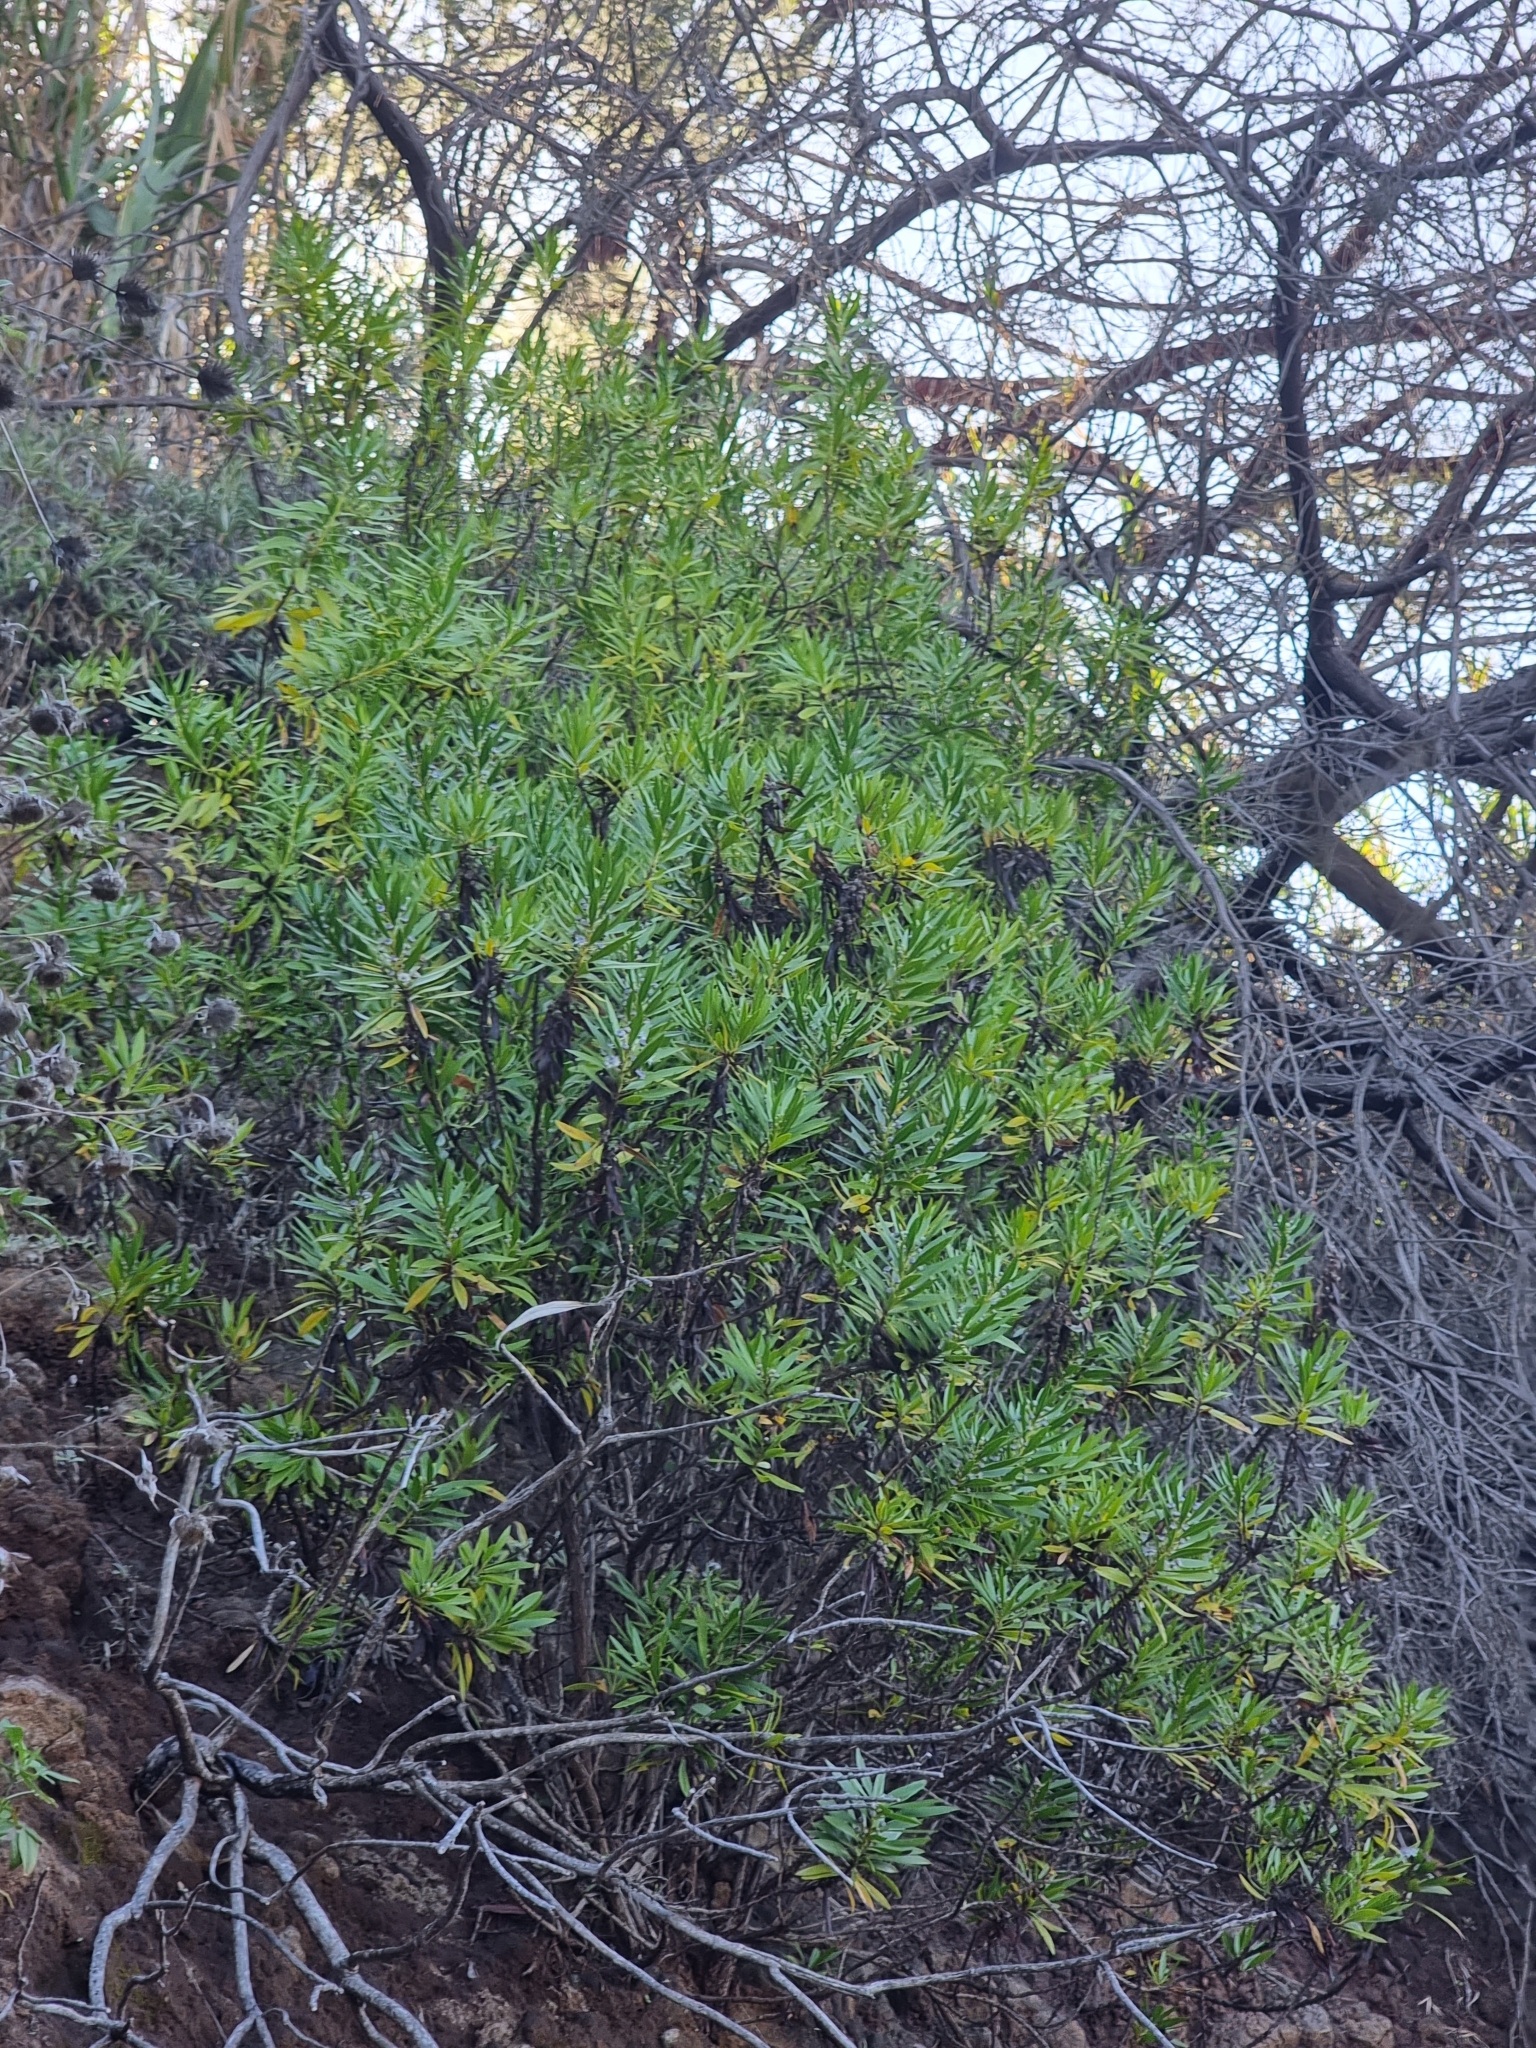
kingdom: Plantae
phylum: Tracheophyta
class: Magnoliopsida
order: Lamiales
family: Plantaginaceae
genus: Globularia
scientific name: Globularia salicina
